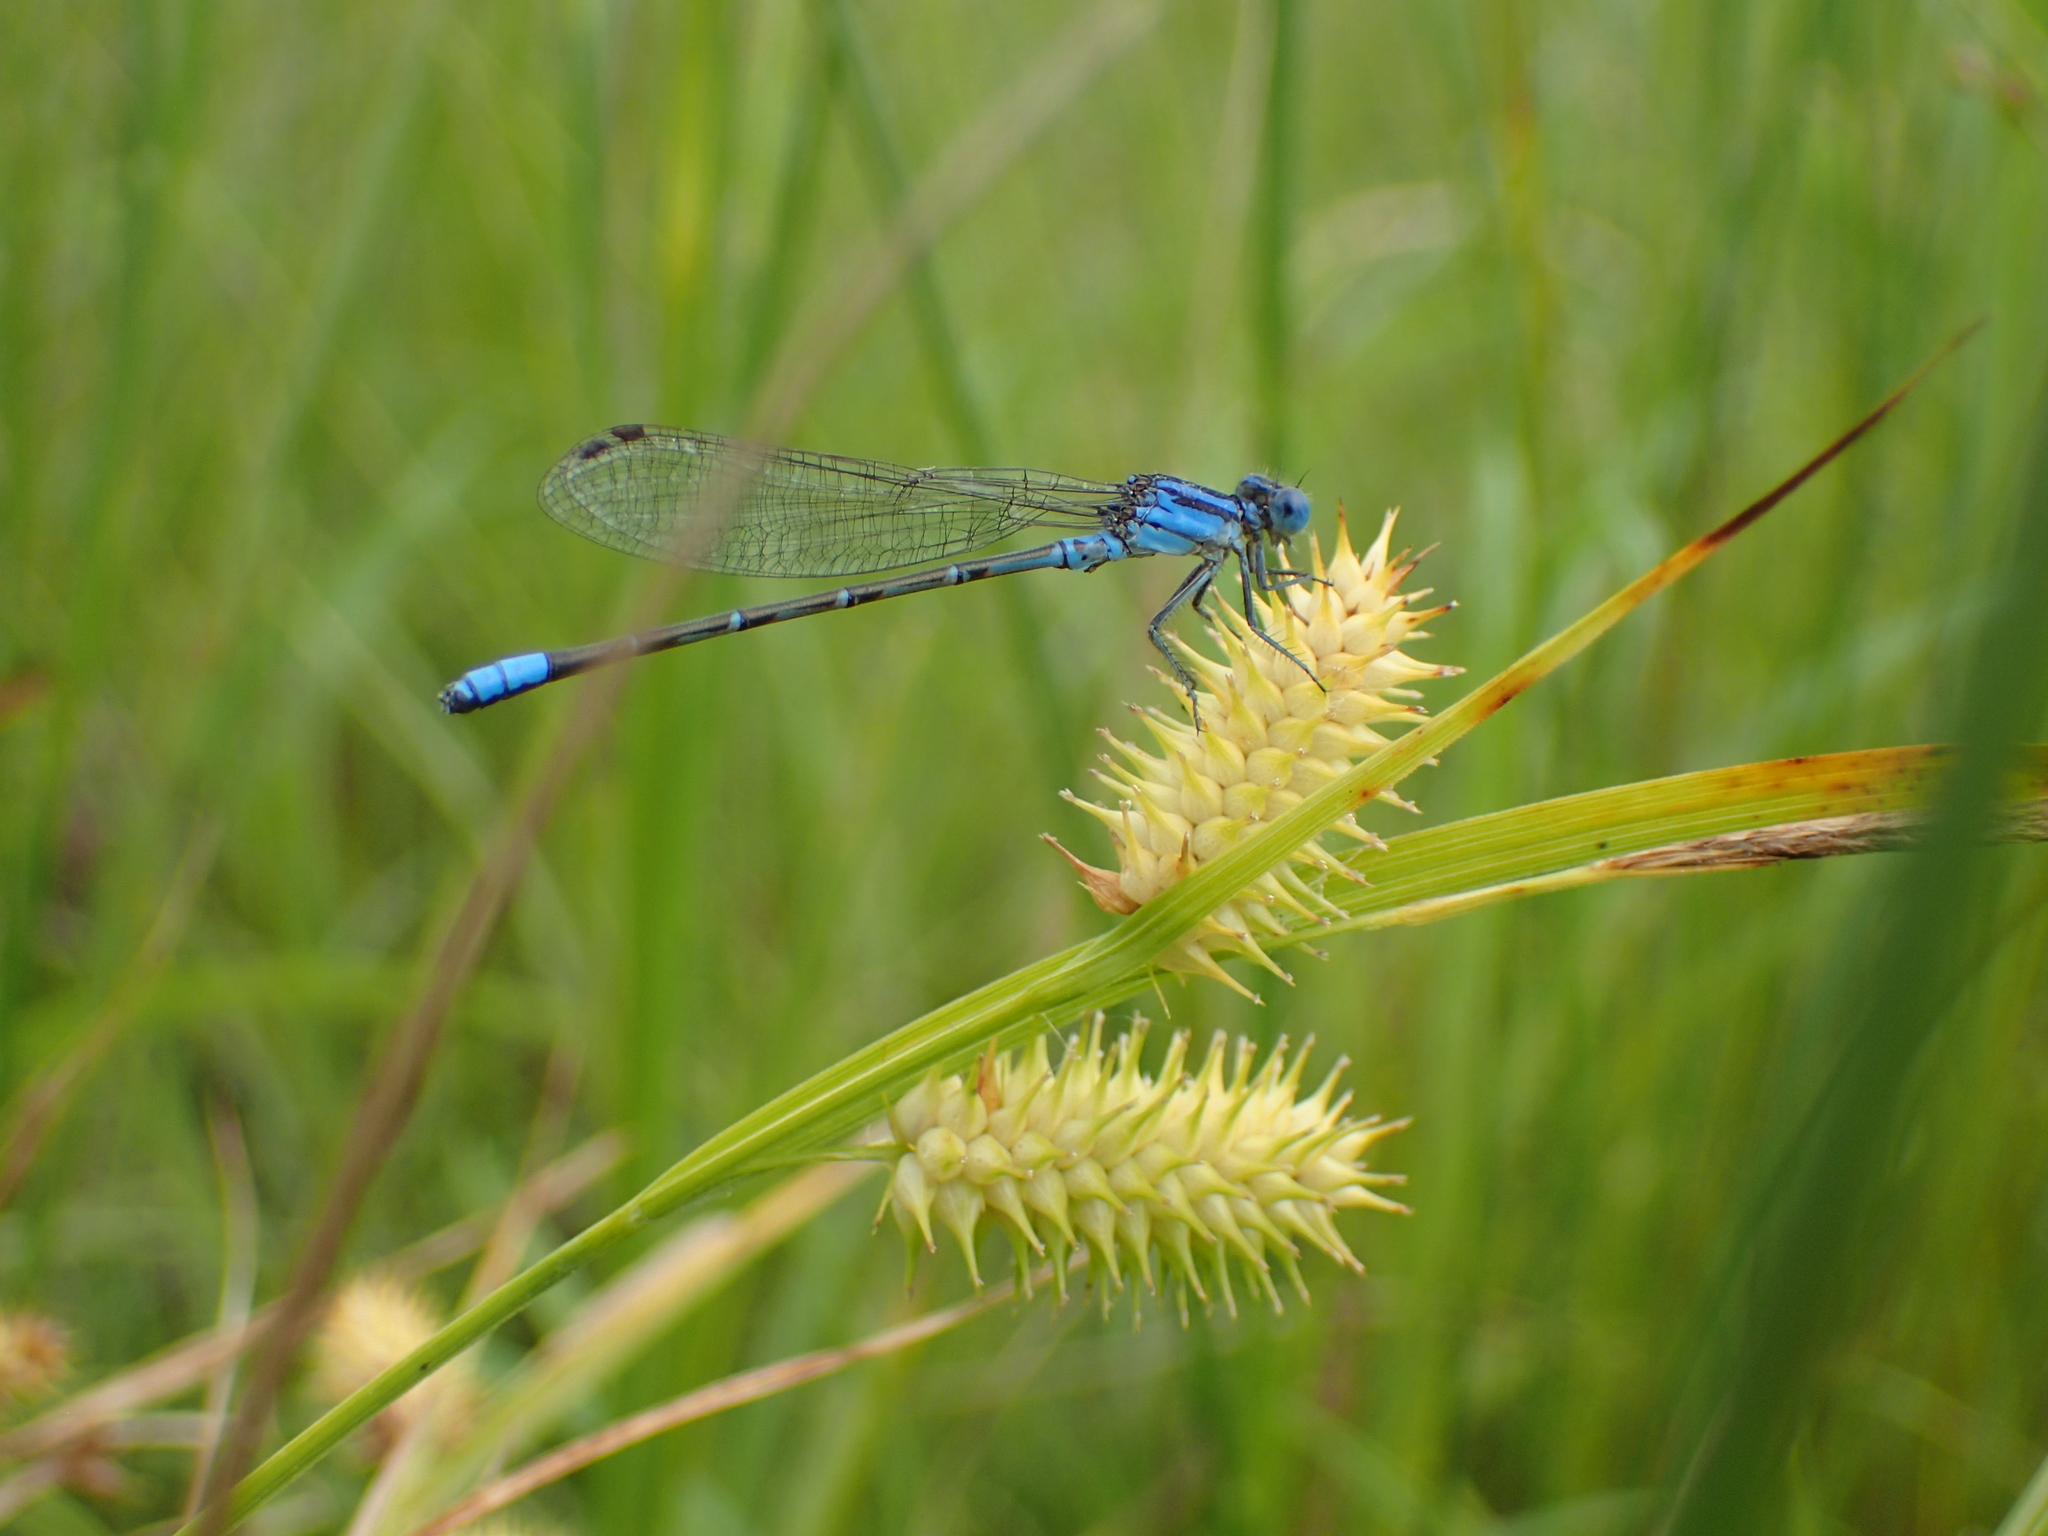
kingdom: Animalia
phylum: Arthropoda
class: Insecta
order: Odonata
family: Coenagrionidae
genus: Argia
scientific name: Argia alberta
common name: Paiute dancer
